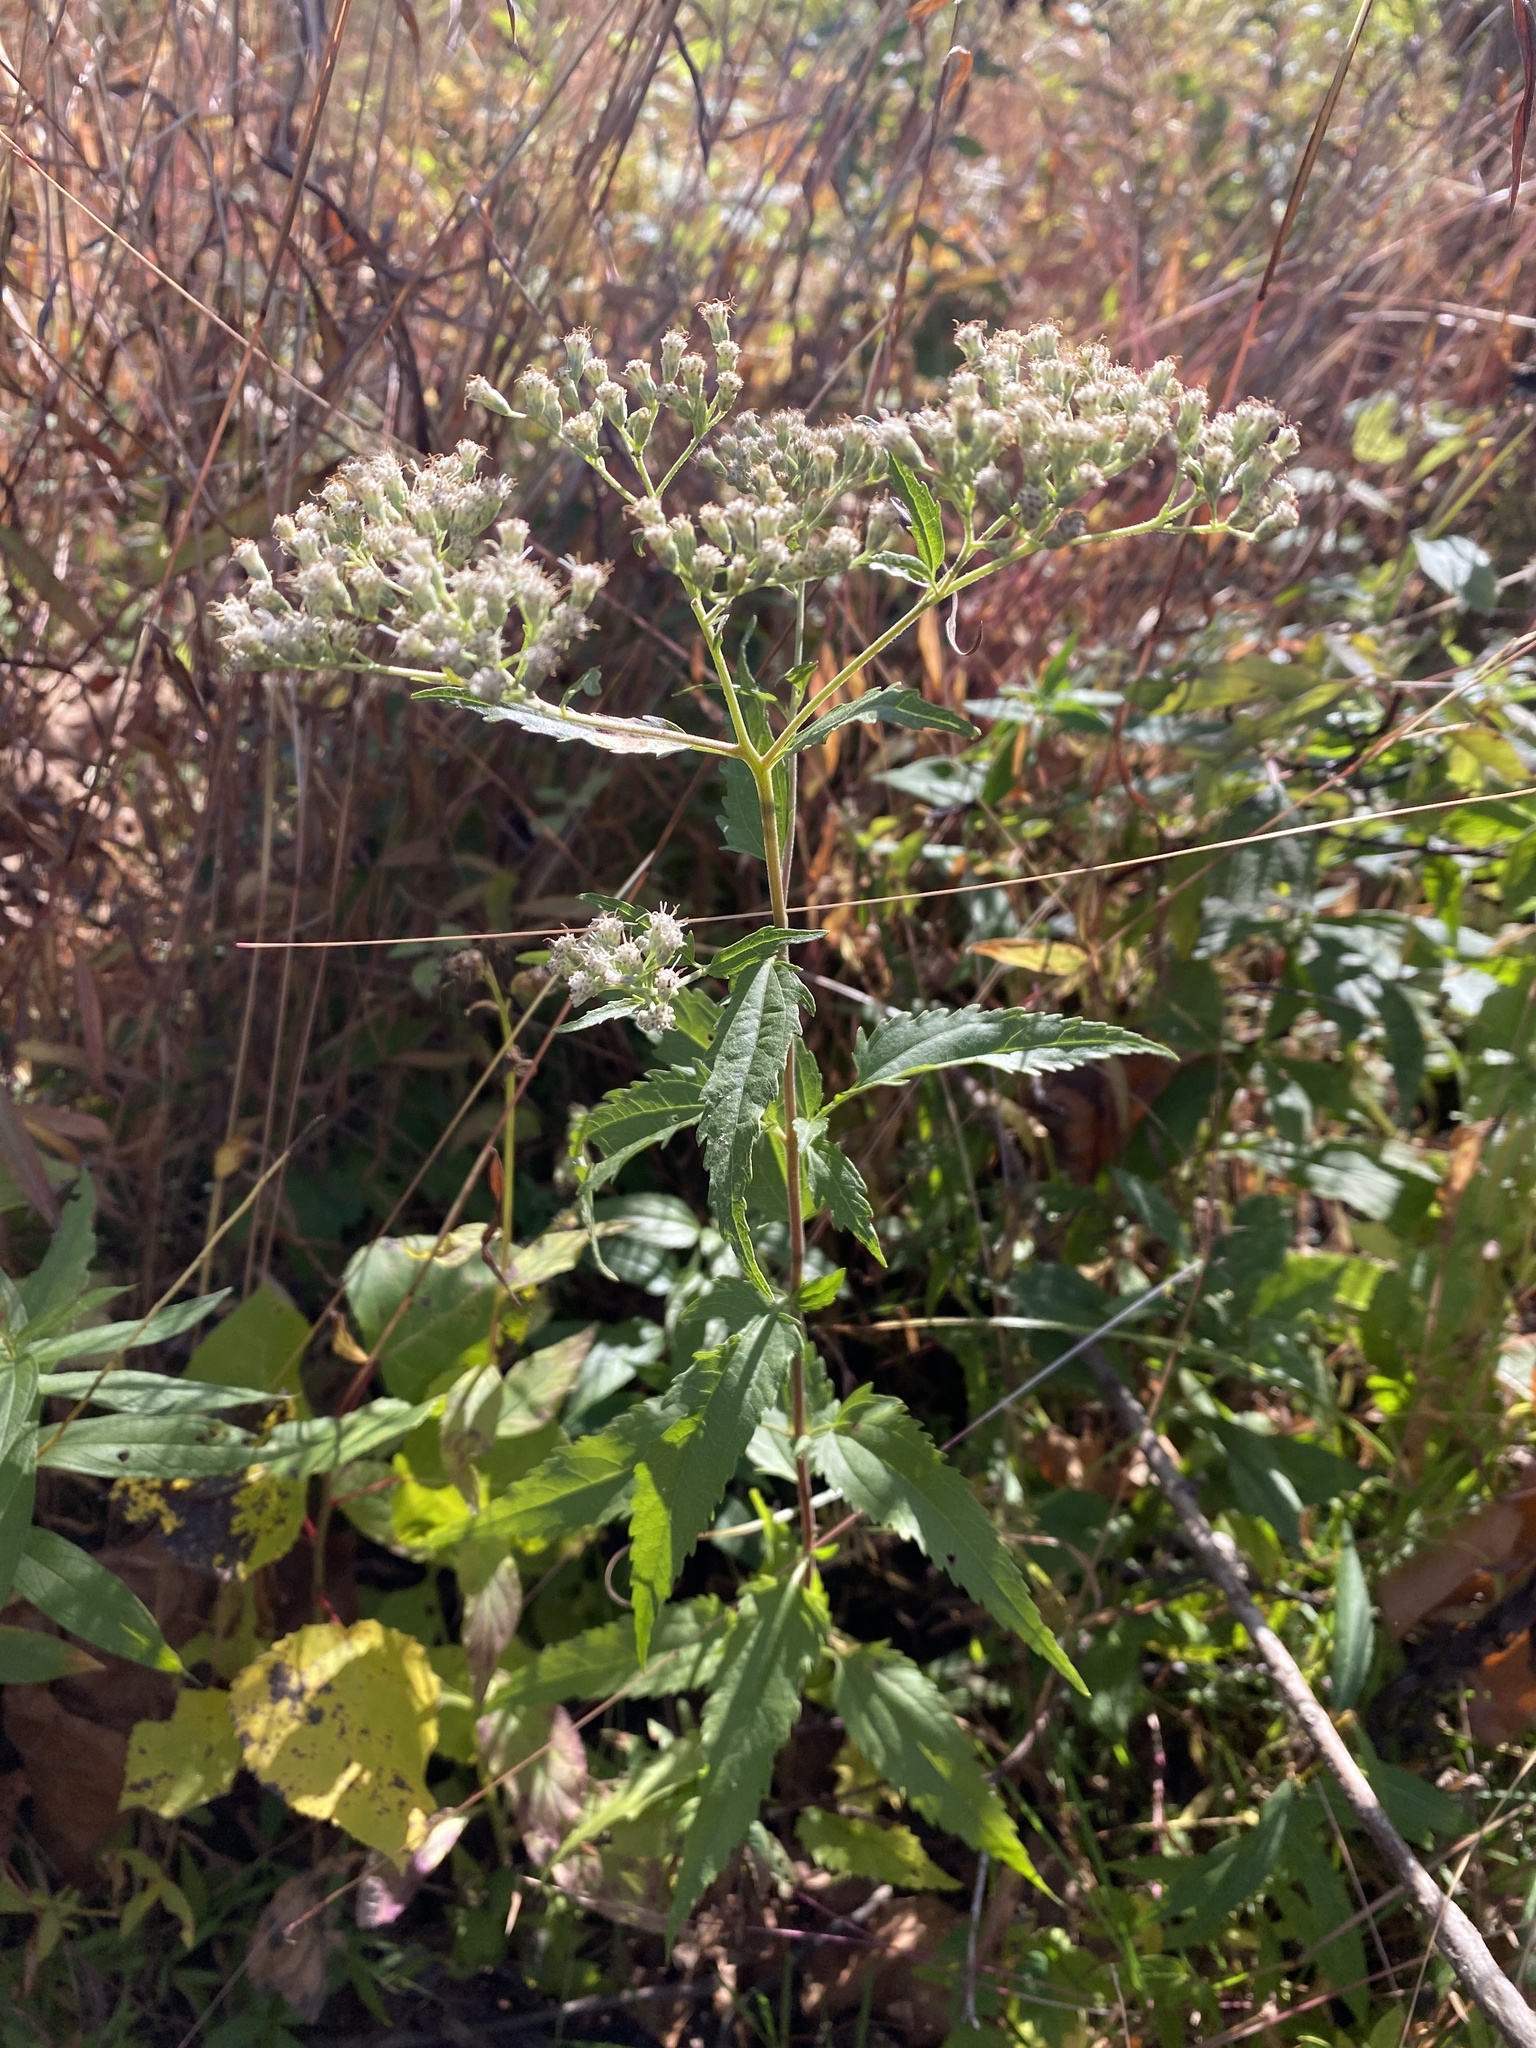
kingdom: Plantae
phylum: Tracheophyta
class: Magnoliopsida
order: Asterales
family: Asteraceae
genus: Eupatorium
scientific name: Eupatorium serotinum
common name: Late boneset
